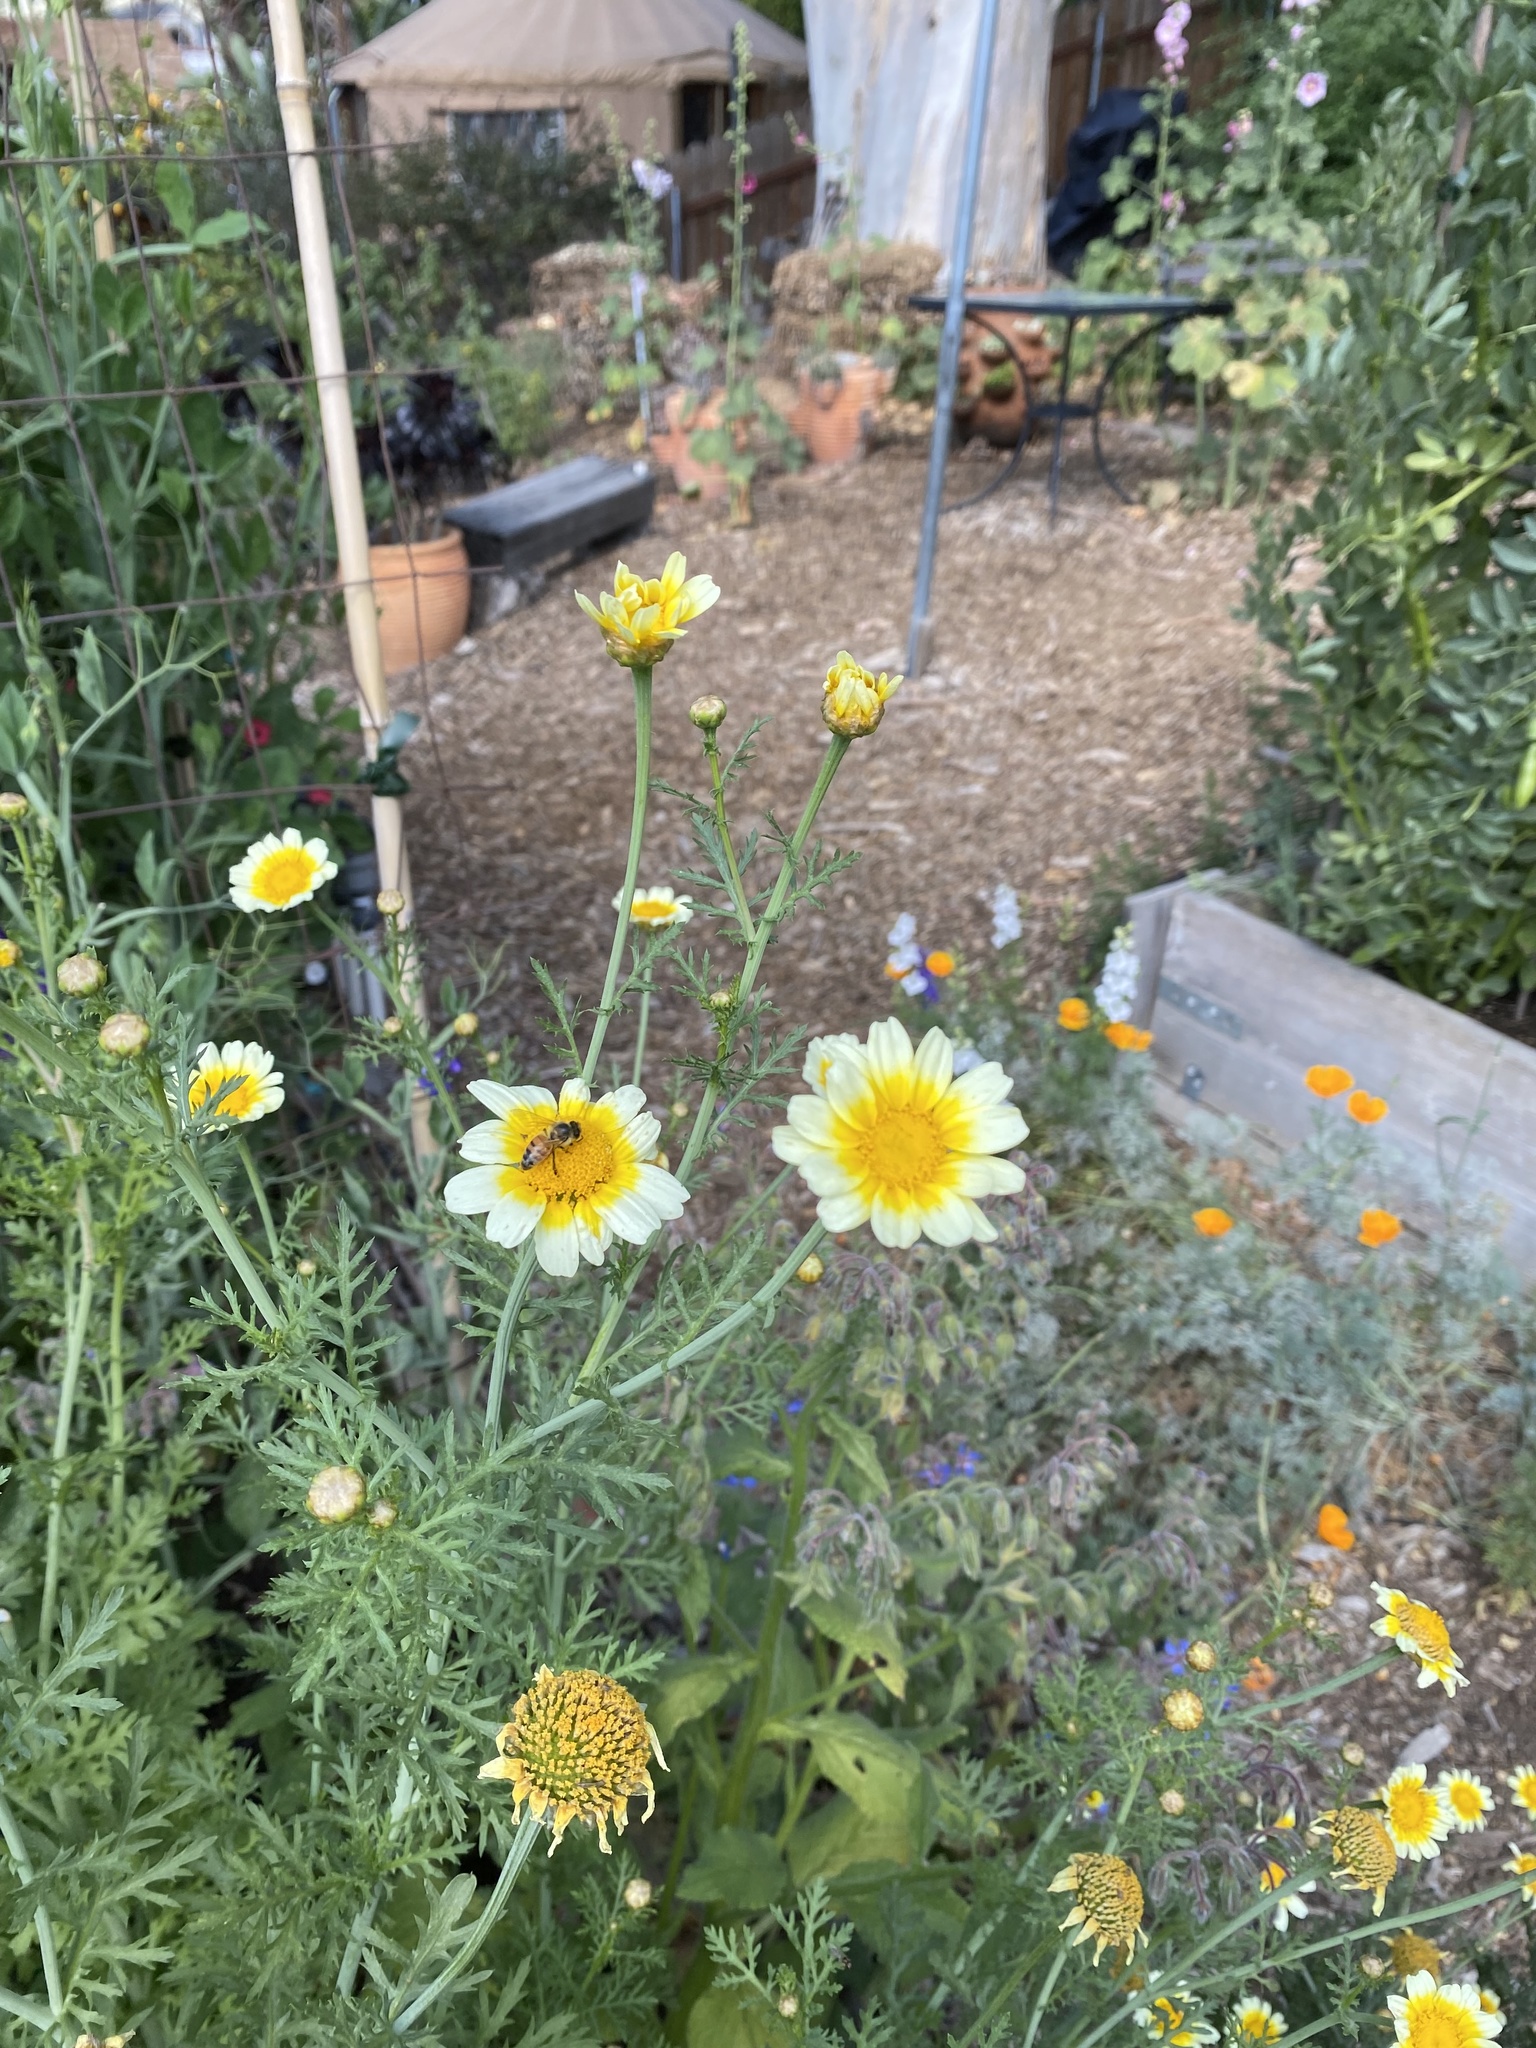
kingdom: Animalia
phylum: Arthropoda
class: Insecta
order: Hymenoptera
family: Apidae
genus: Apis
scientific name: Apis mellifera
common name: Honey bee
